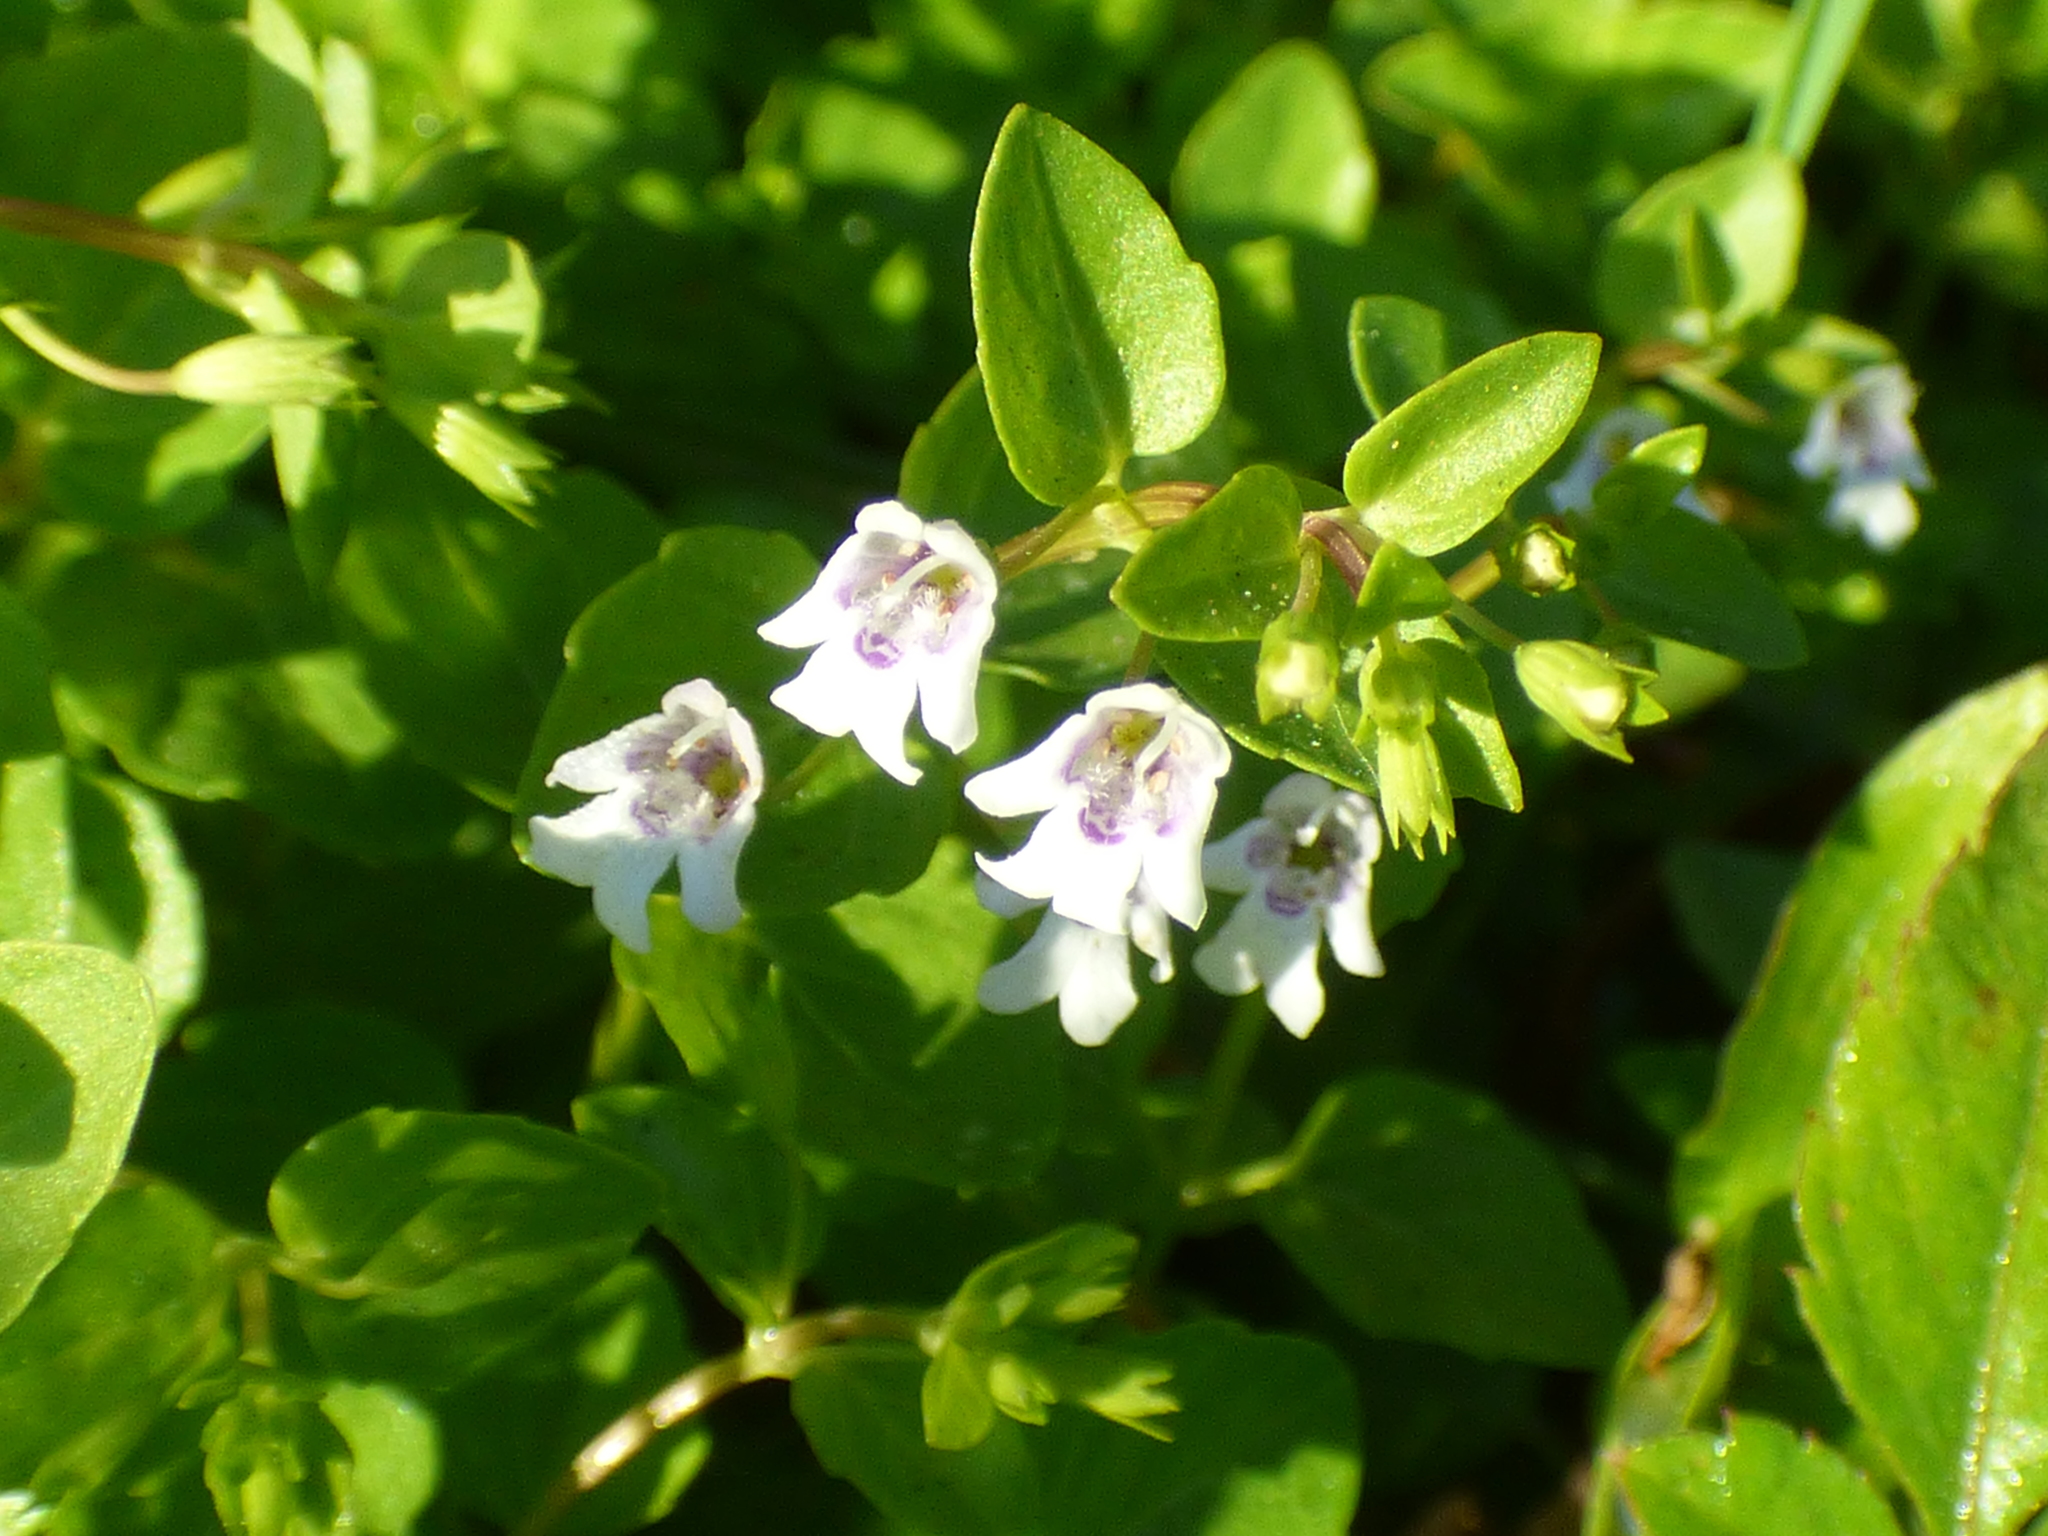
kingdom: Plantae
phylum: Tracheophyta
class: Magnoliopsida
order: Lamiales
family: Lamiaceae
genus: Clinopodium
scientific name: Clinopodium brownei
